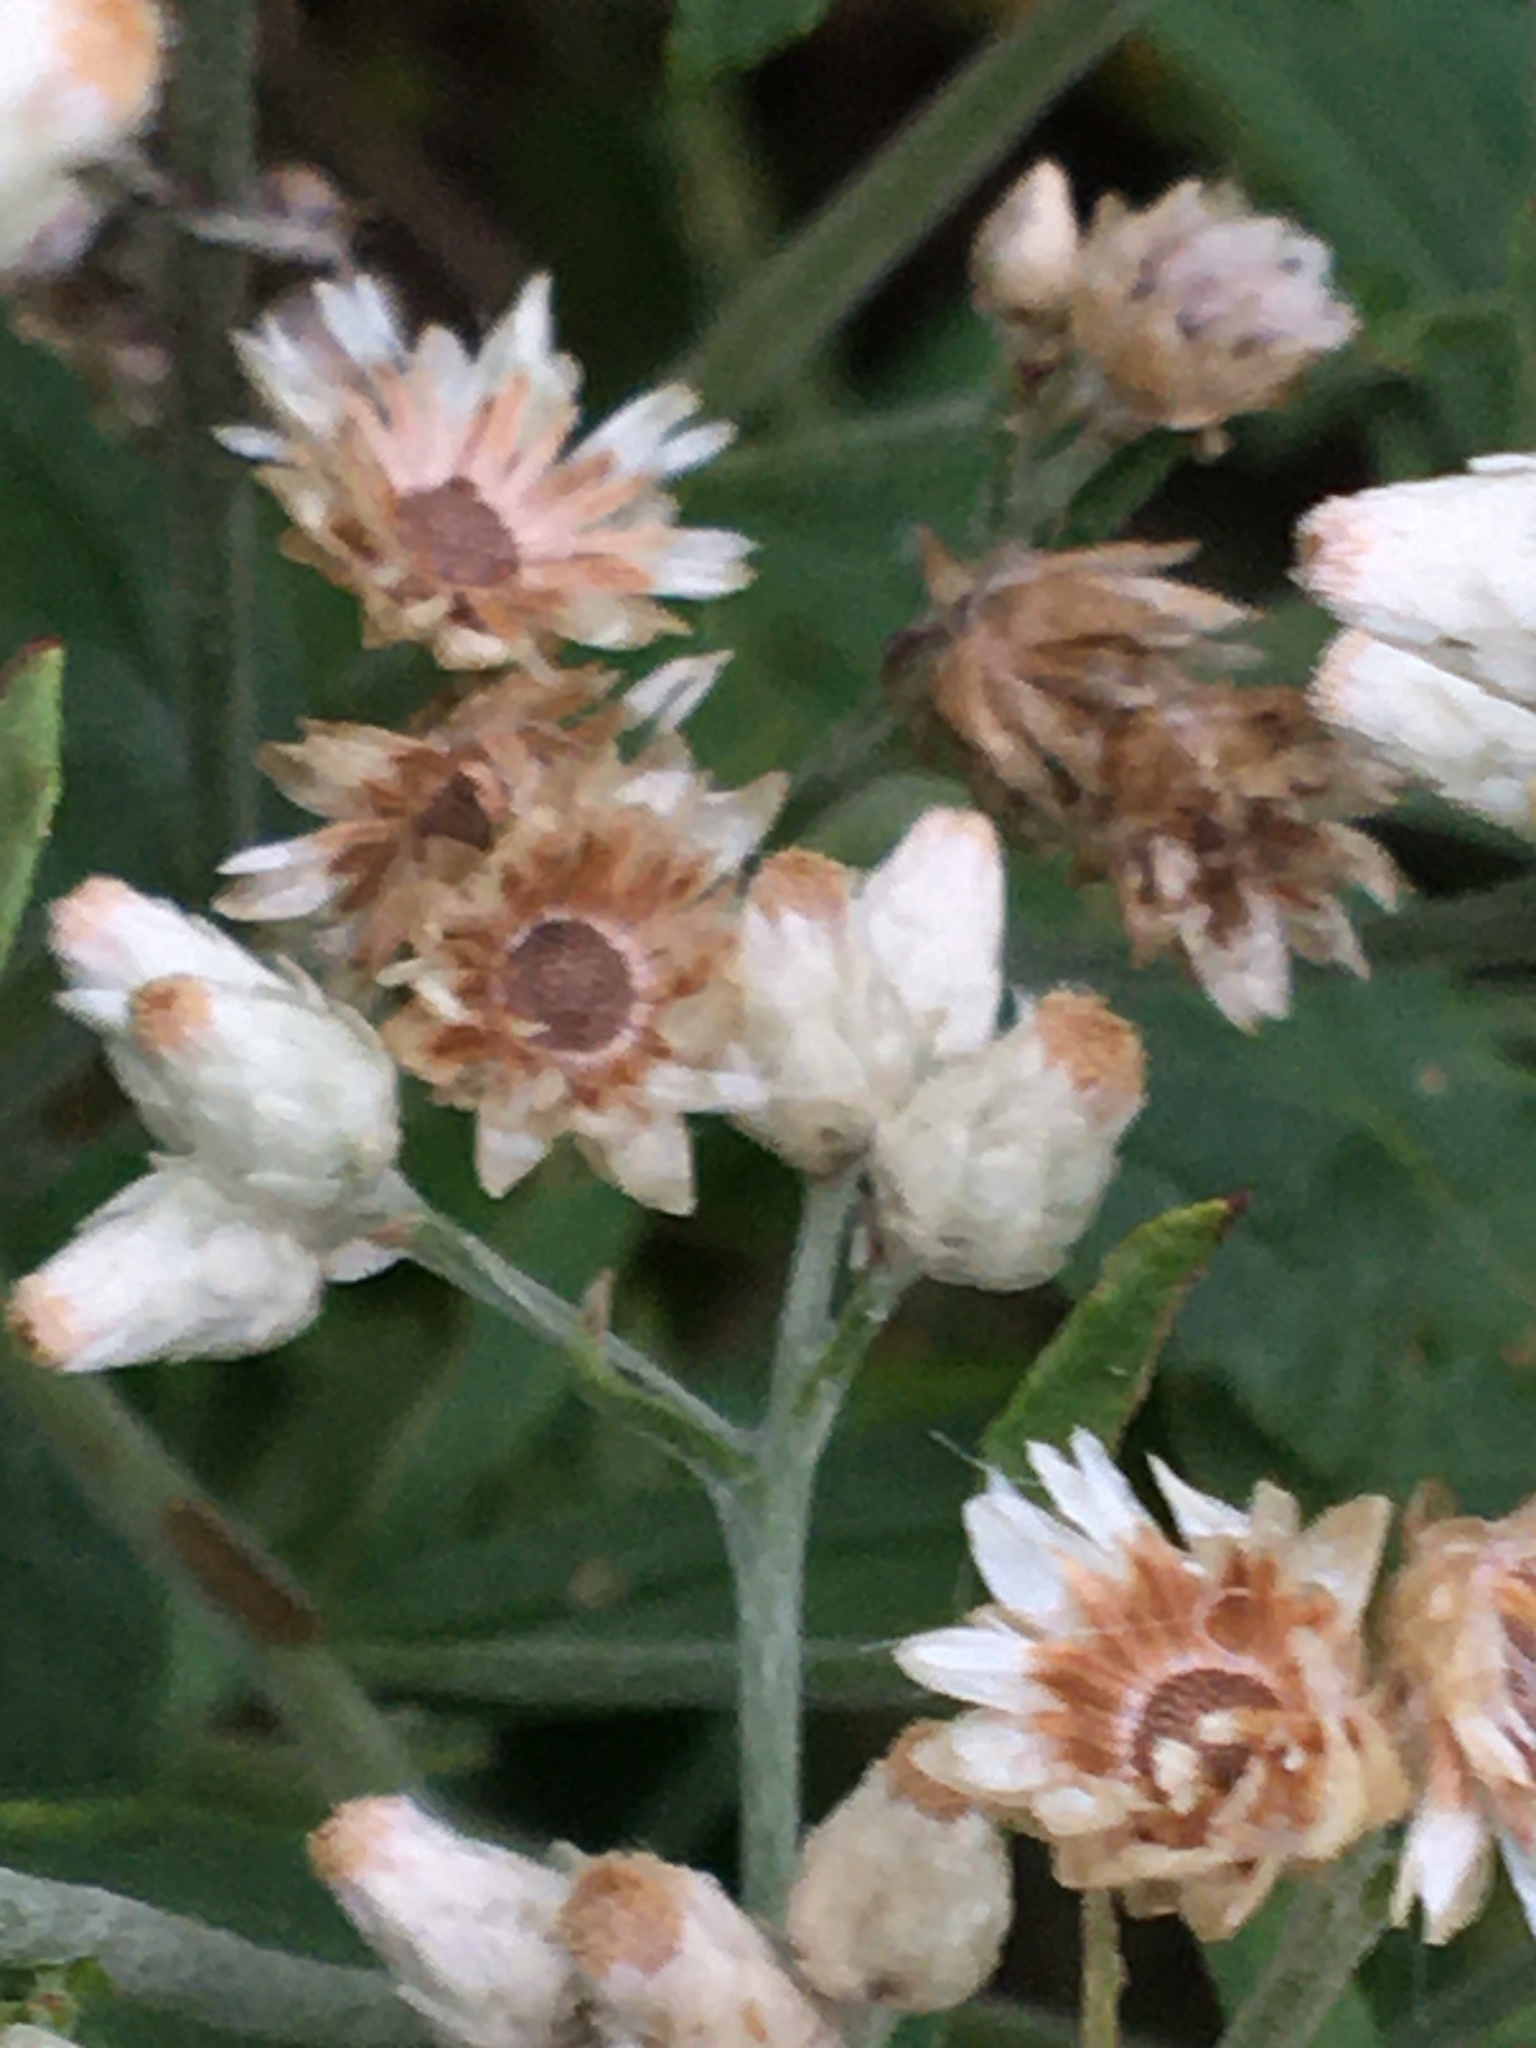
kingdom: Plantae
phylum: Tracheophyta
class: Magnoliopsida
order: Asterales
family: Asteraceae
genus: Pseudognaphalium
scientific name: Pseudognaphalium obtusifolium
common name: Eastern rabbit-tobacco
